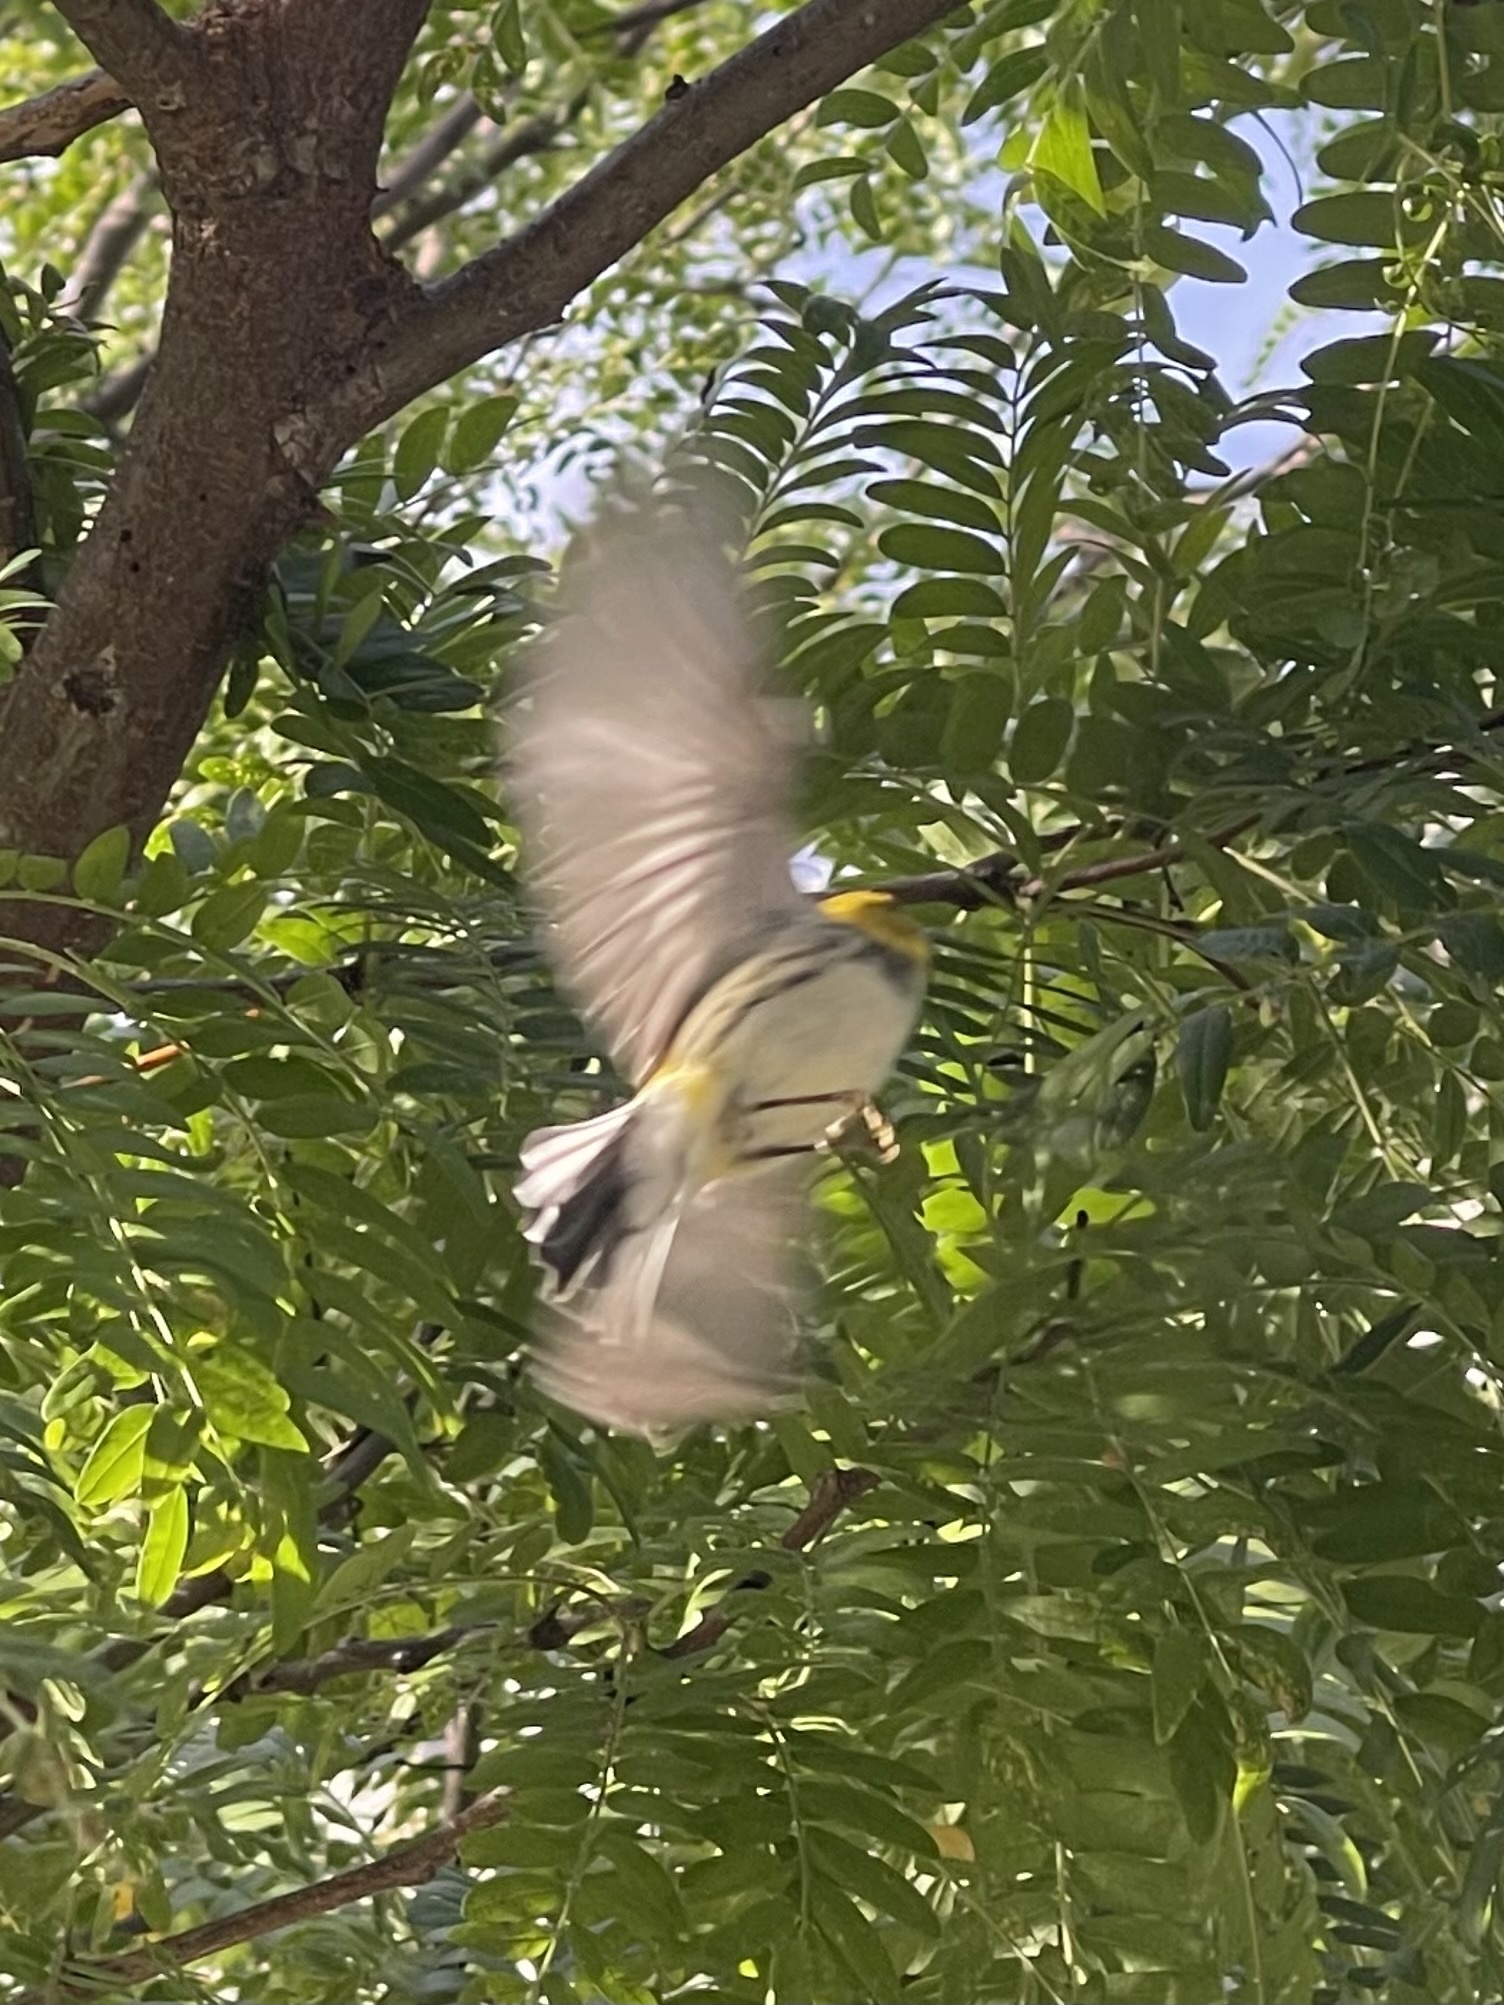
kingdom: Animalia
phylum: Chordata
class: Aves
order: Passeriformes
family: Parulidae
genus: Setophaga
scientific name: Setophaga virens
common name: Black-throated green warbler
